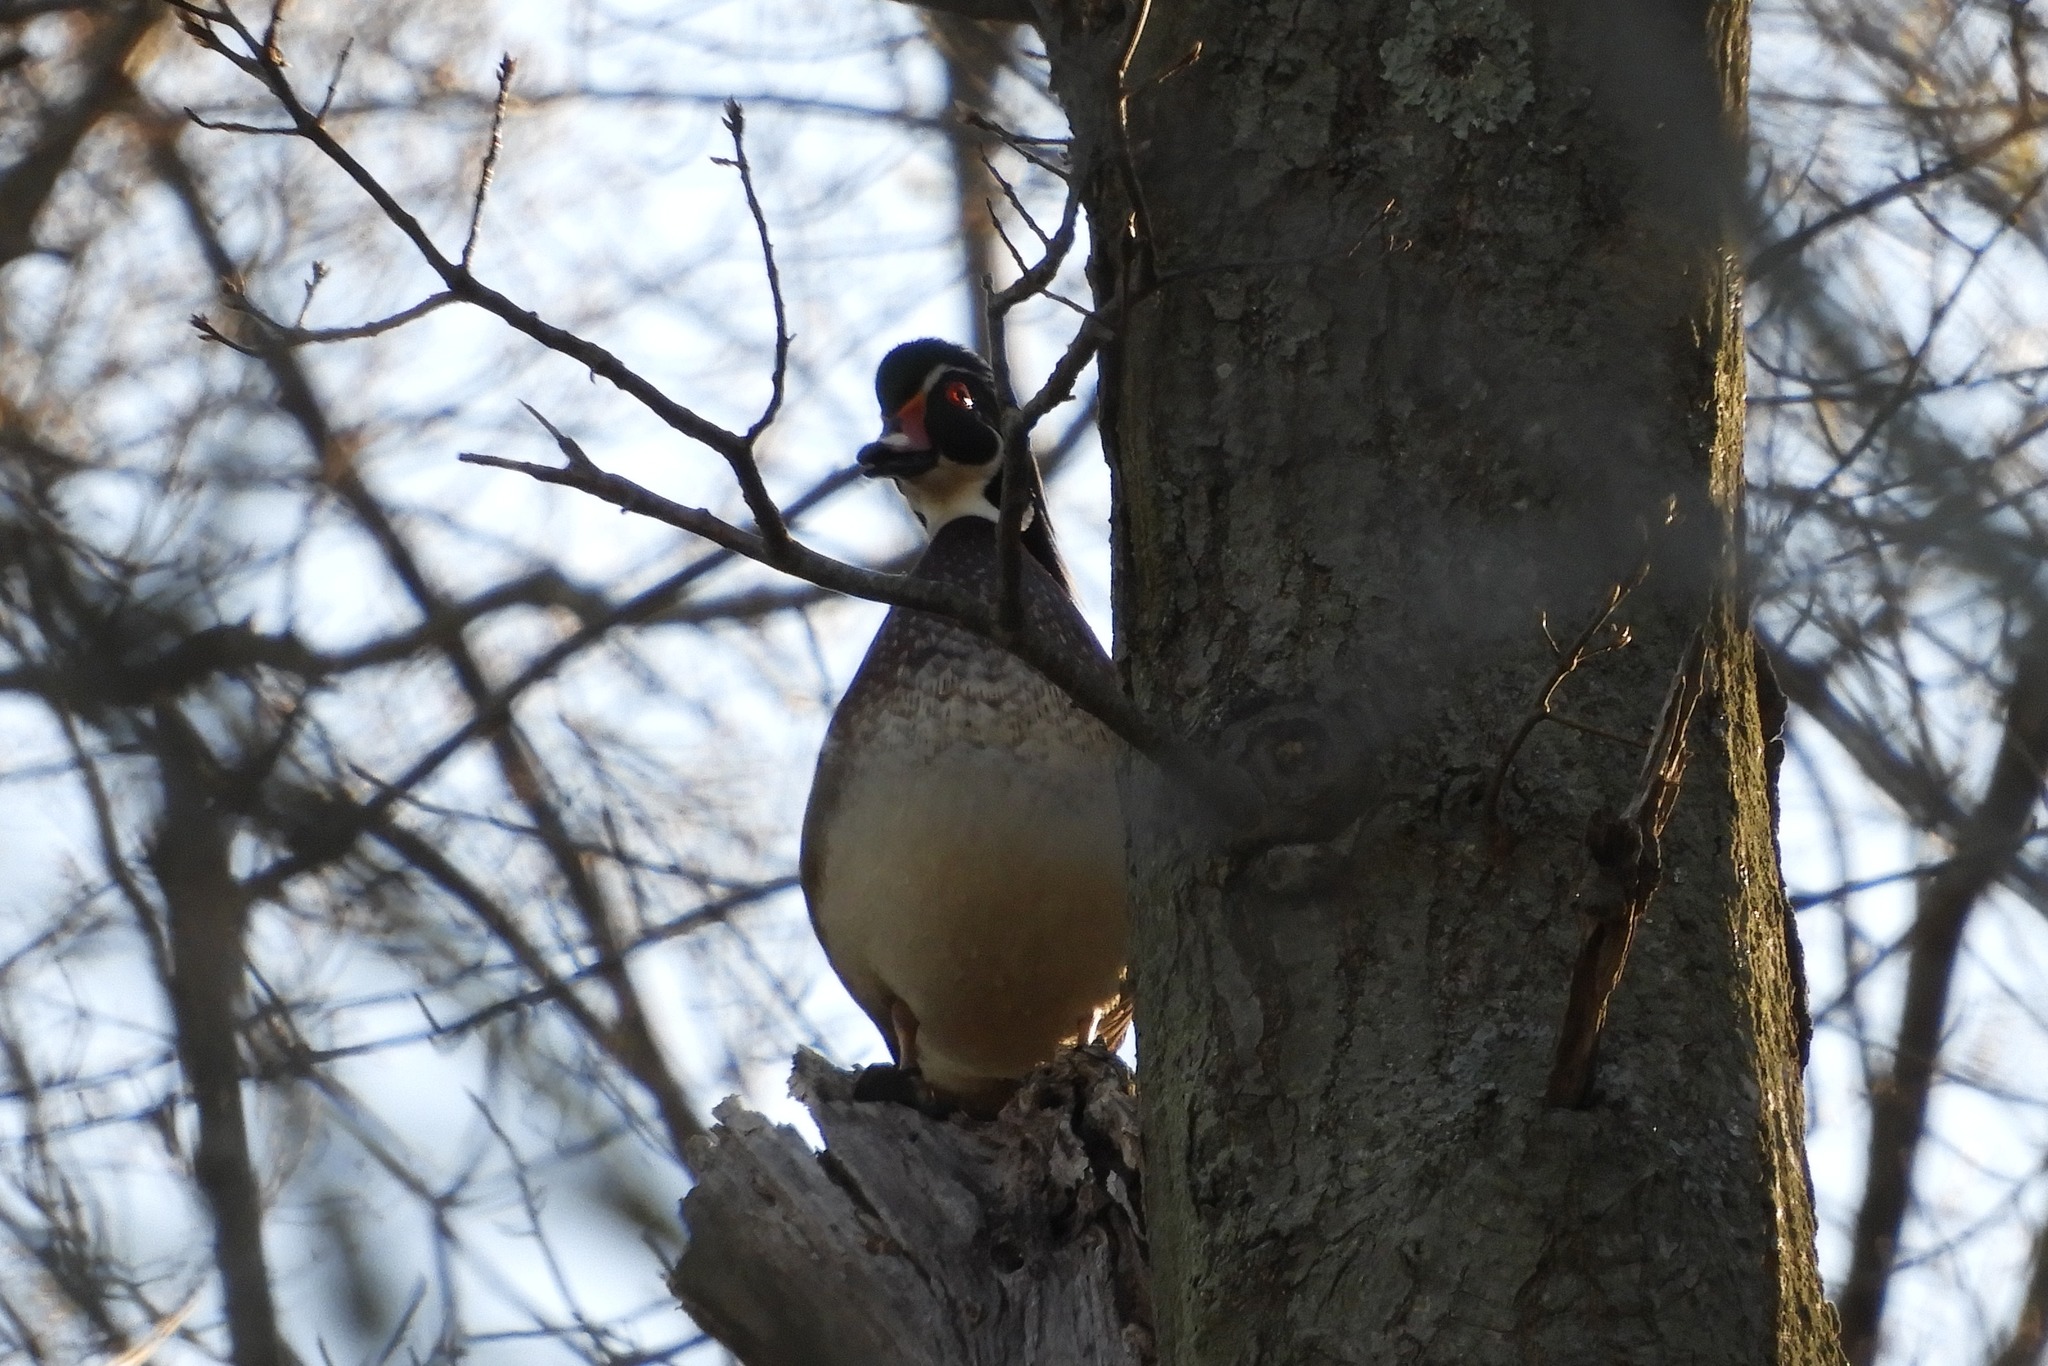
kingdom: Animalia
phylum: Chordata
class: Aves
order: Anseriformes
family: Anatidae
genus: Aix
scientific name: Aix sponsa
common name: Wood duck
